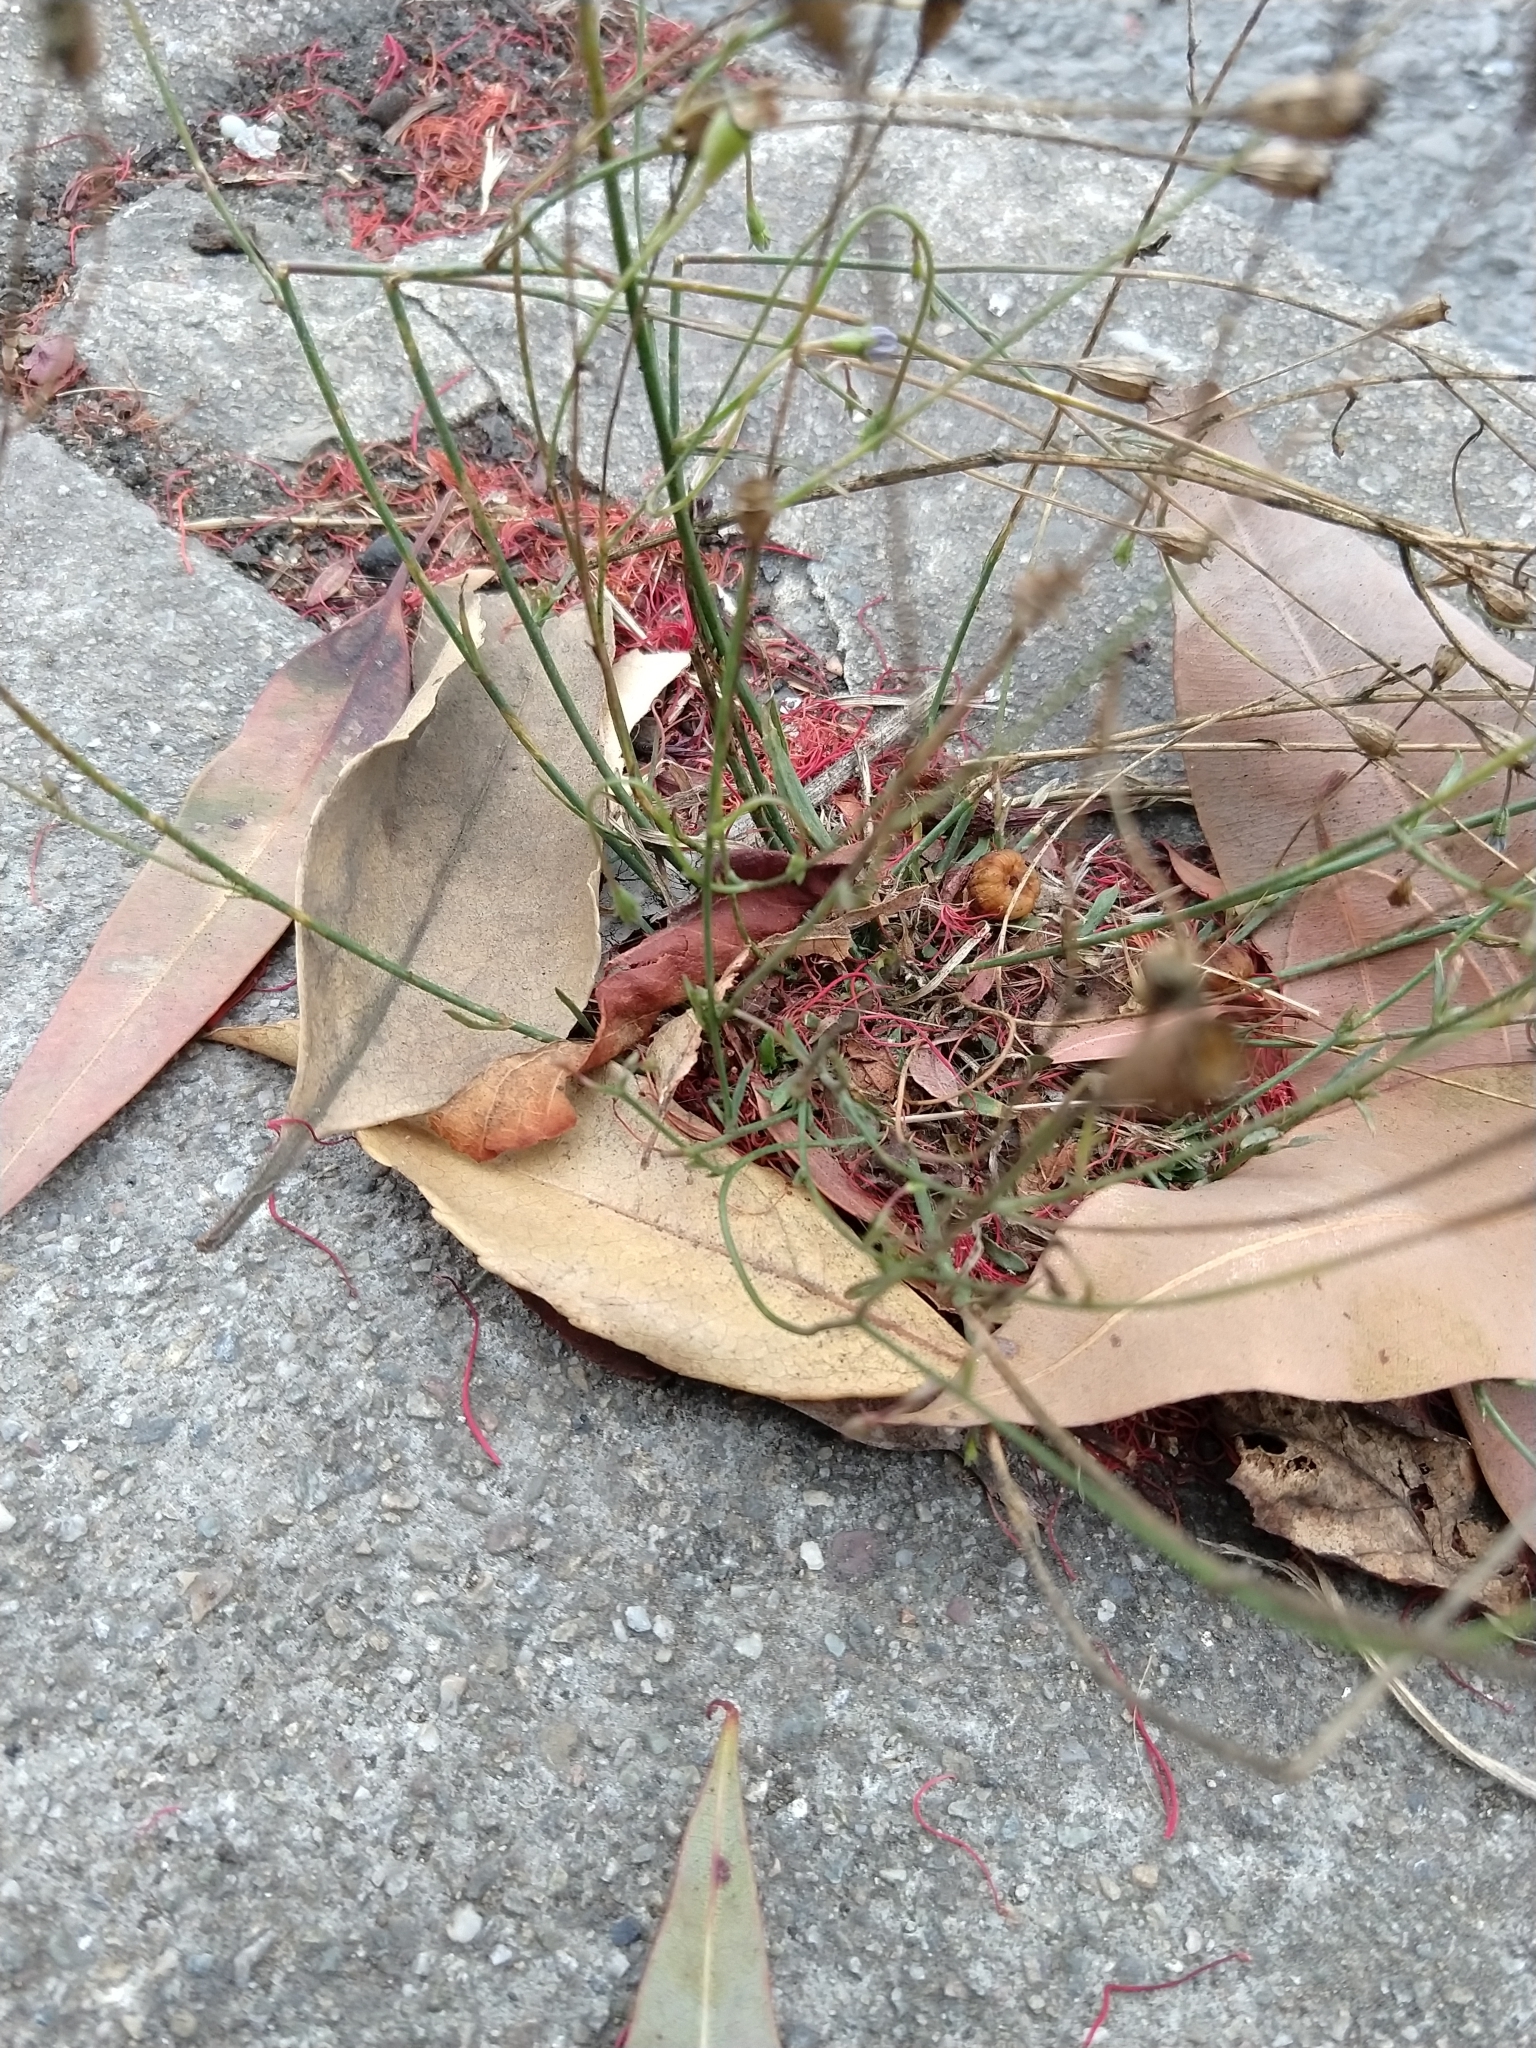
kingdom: Plantae
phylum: Tracheophyta
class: Magnoliopsida
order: Asterales
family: Campanulaceae
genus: Wahlenbergia
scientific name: Wahlenbergia marginata
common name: Southern rockbell
